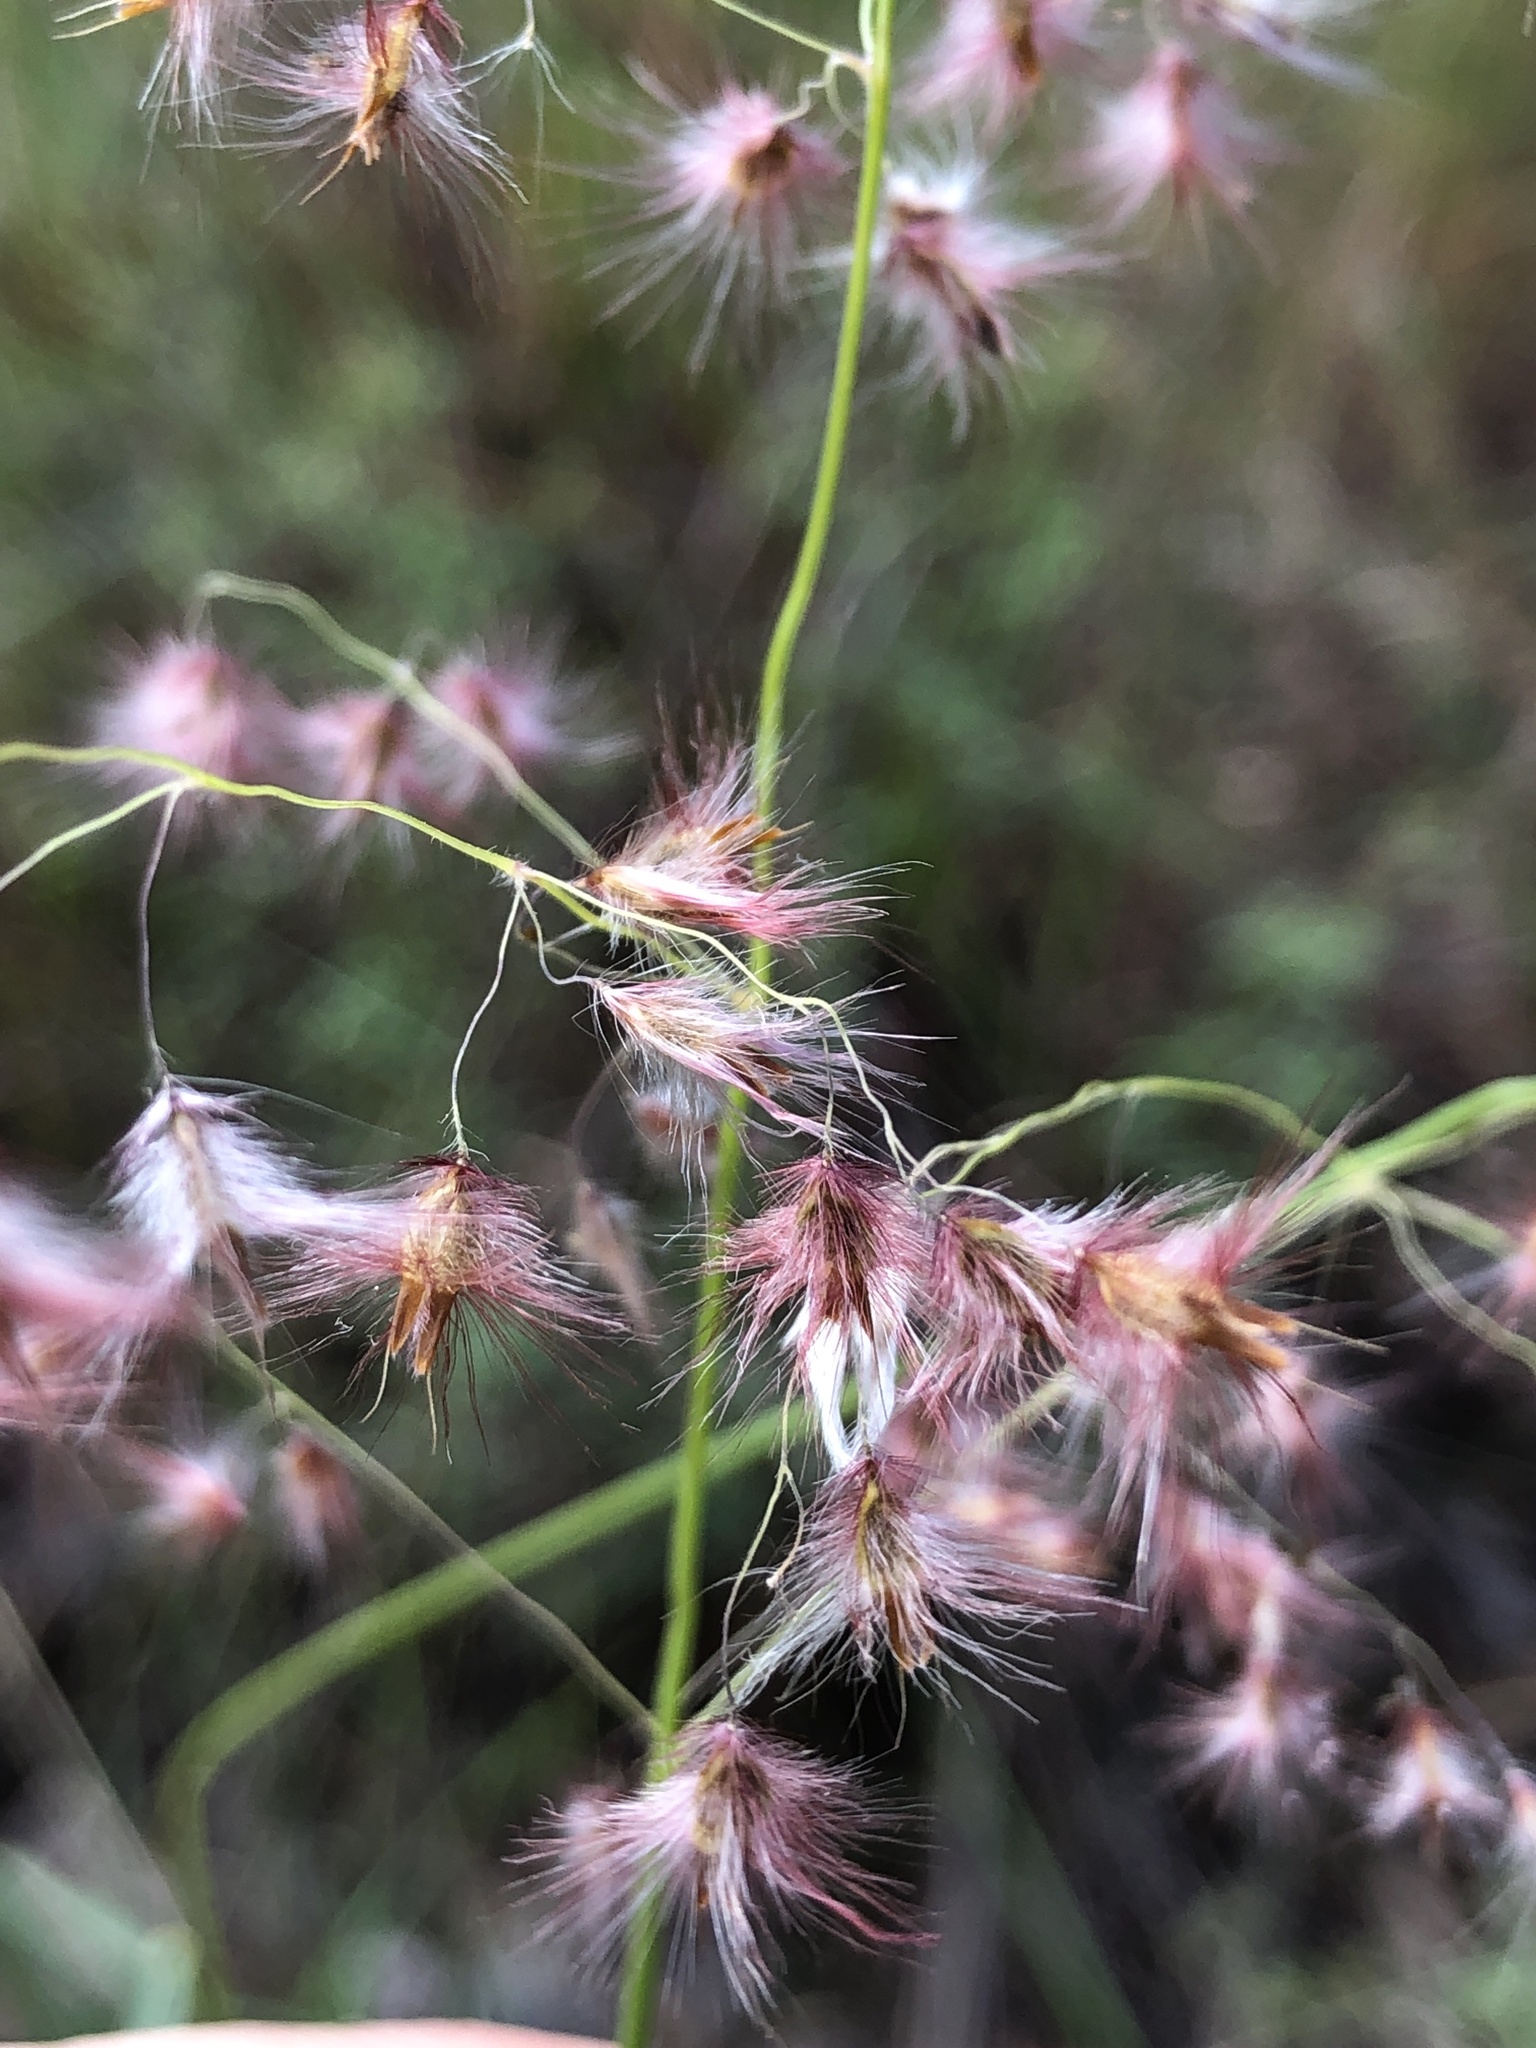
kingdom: Plantae
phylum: Tracheophyta
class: Liliopsida
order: Poales
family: Poaceae
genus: Melinis
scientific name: Melinis repens
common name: Rose natal grass
